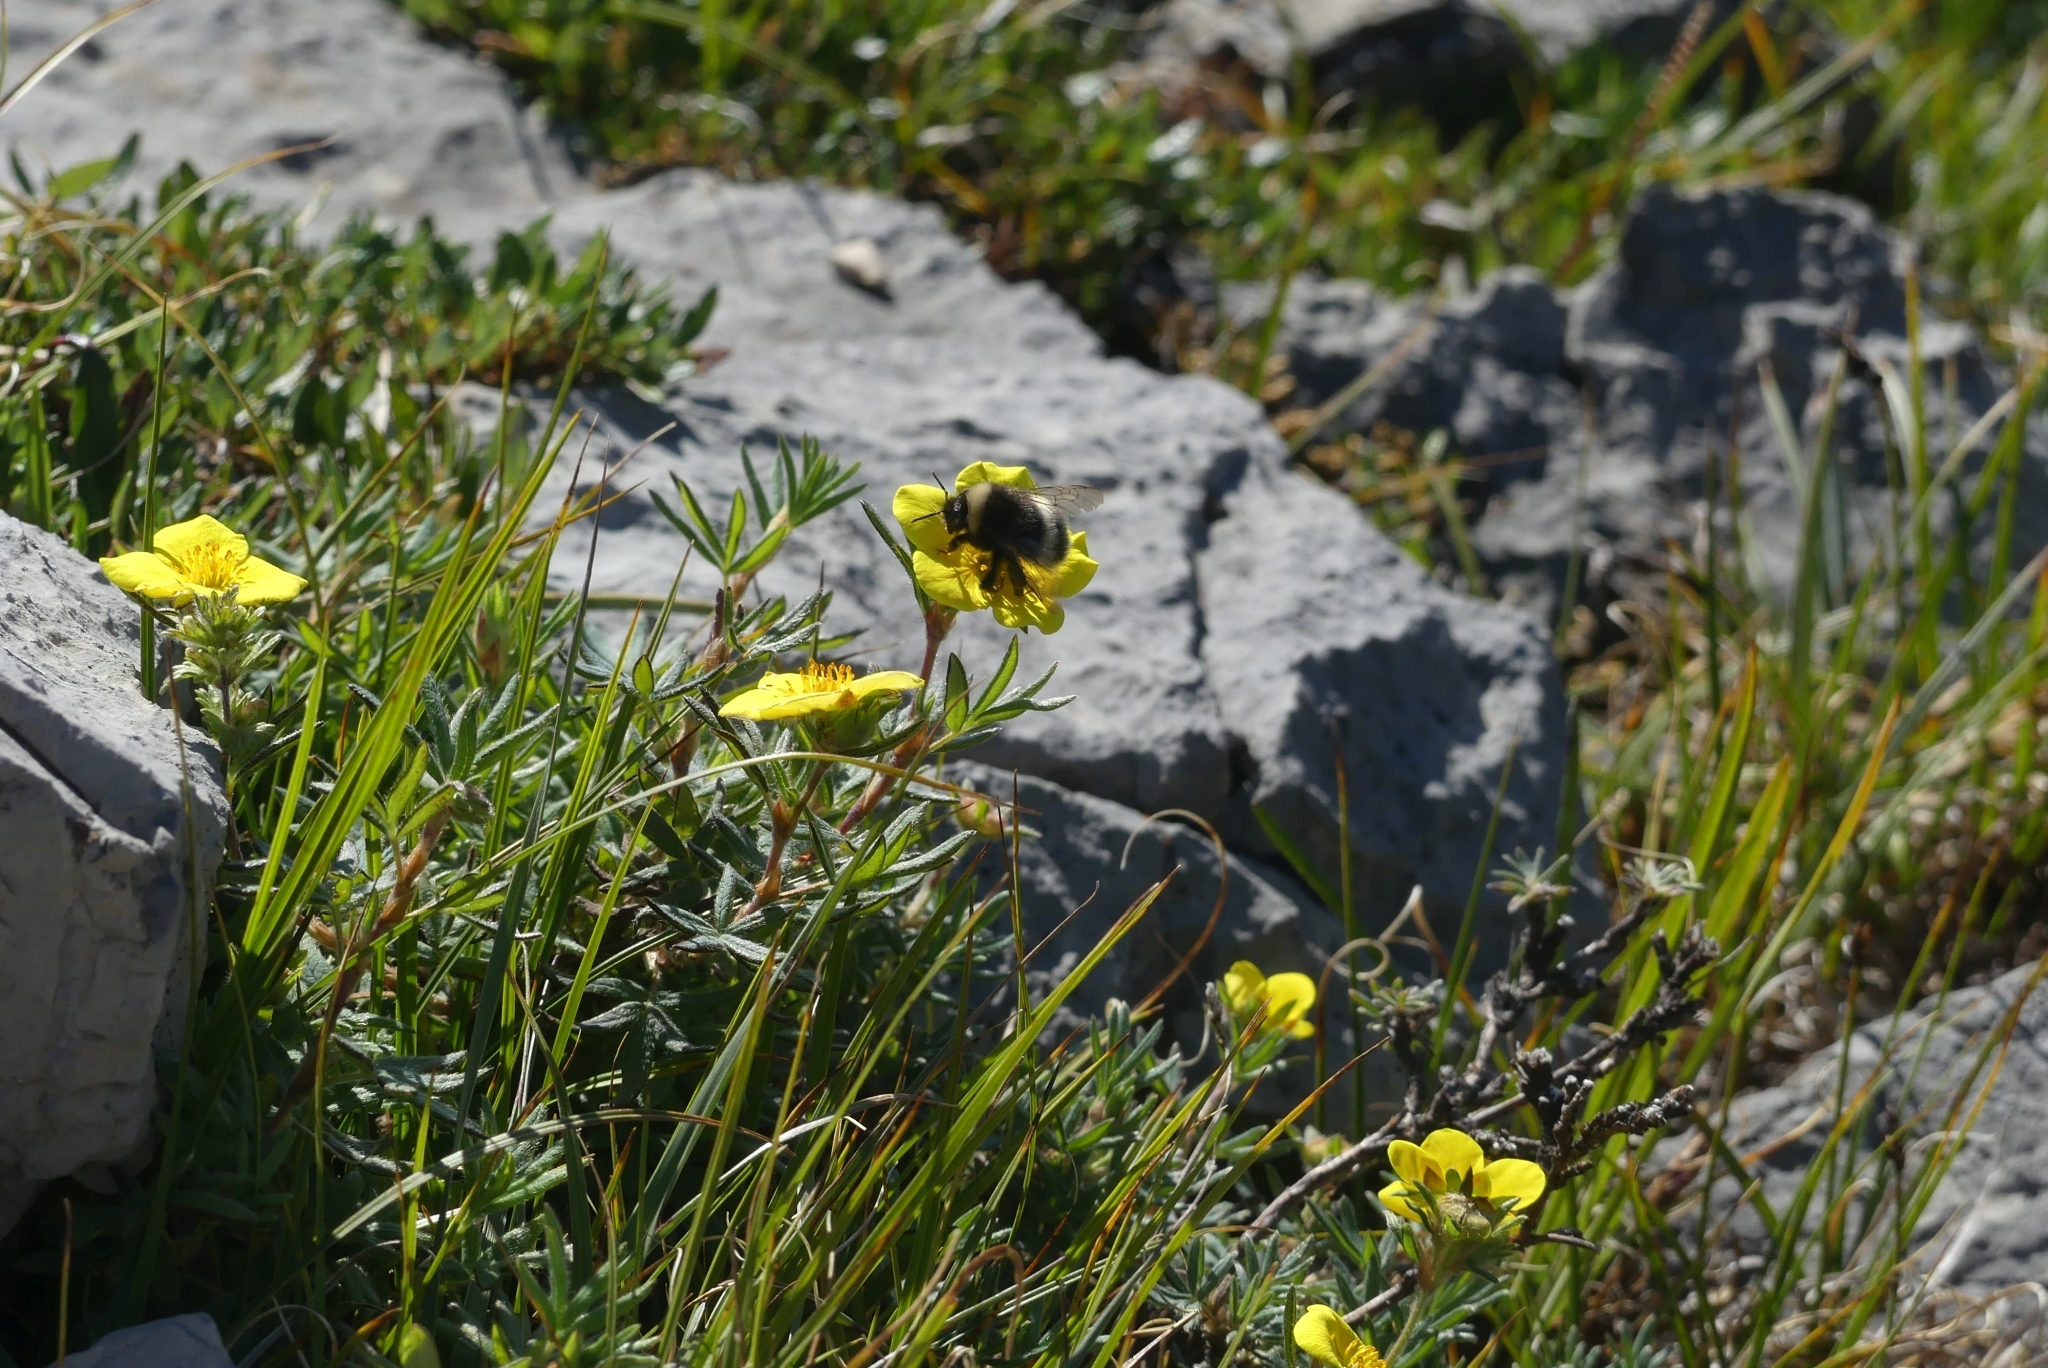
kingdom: Animalia
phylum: Arthropoda
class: Insecta
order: Hymenoptera
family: Apidae
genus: Bombus
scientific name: Bombus cryptarum
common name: Cryptic bumblebee
